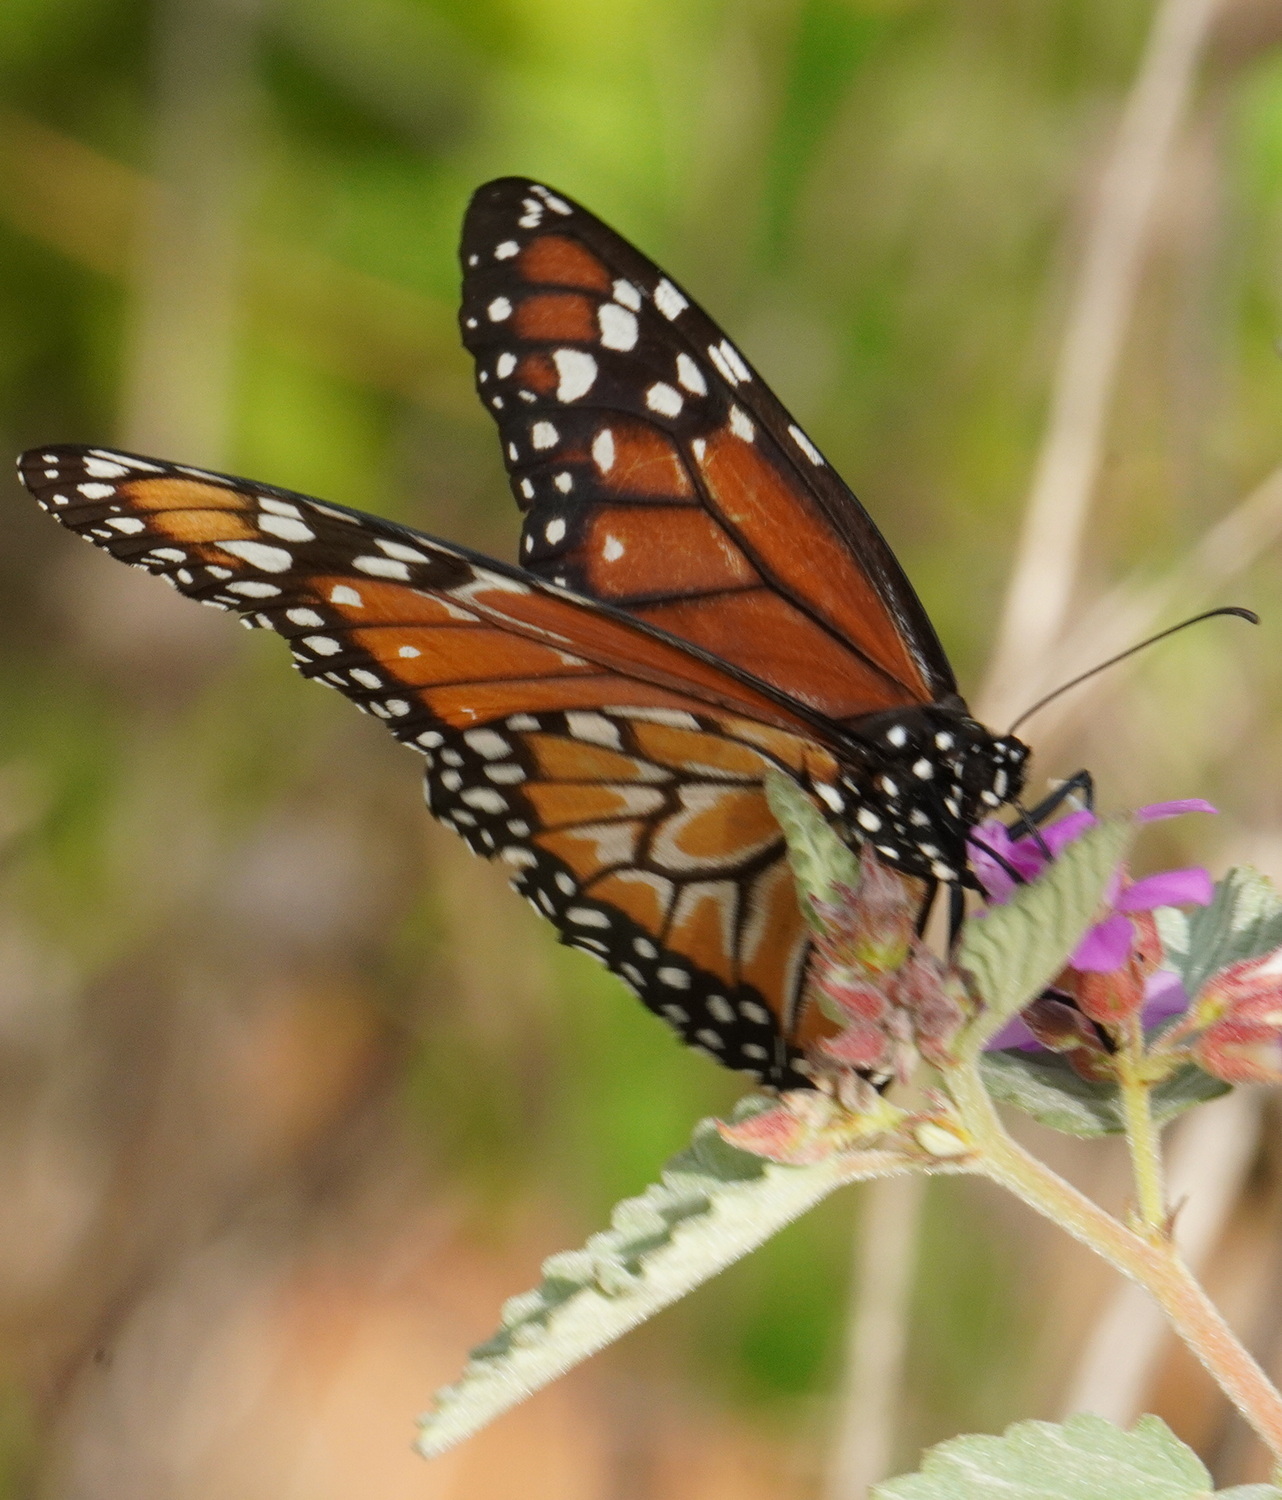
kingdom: Animalia
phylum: Arthropoda
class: Insecta
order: Lepidoptera
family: Nymphalidae
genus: Danaus
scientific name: Danaus erippus
